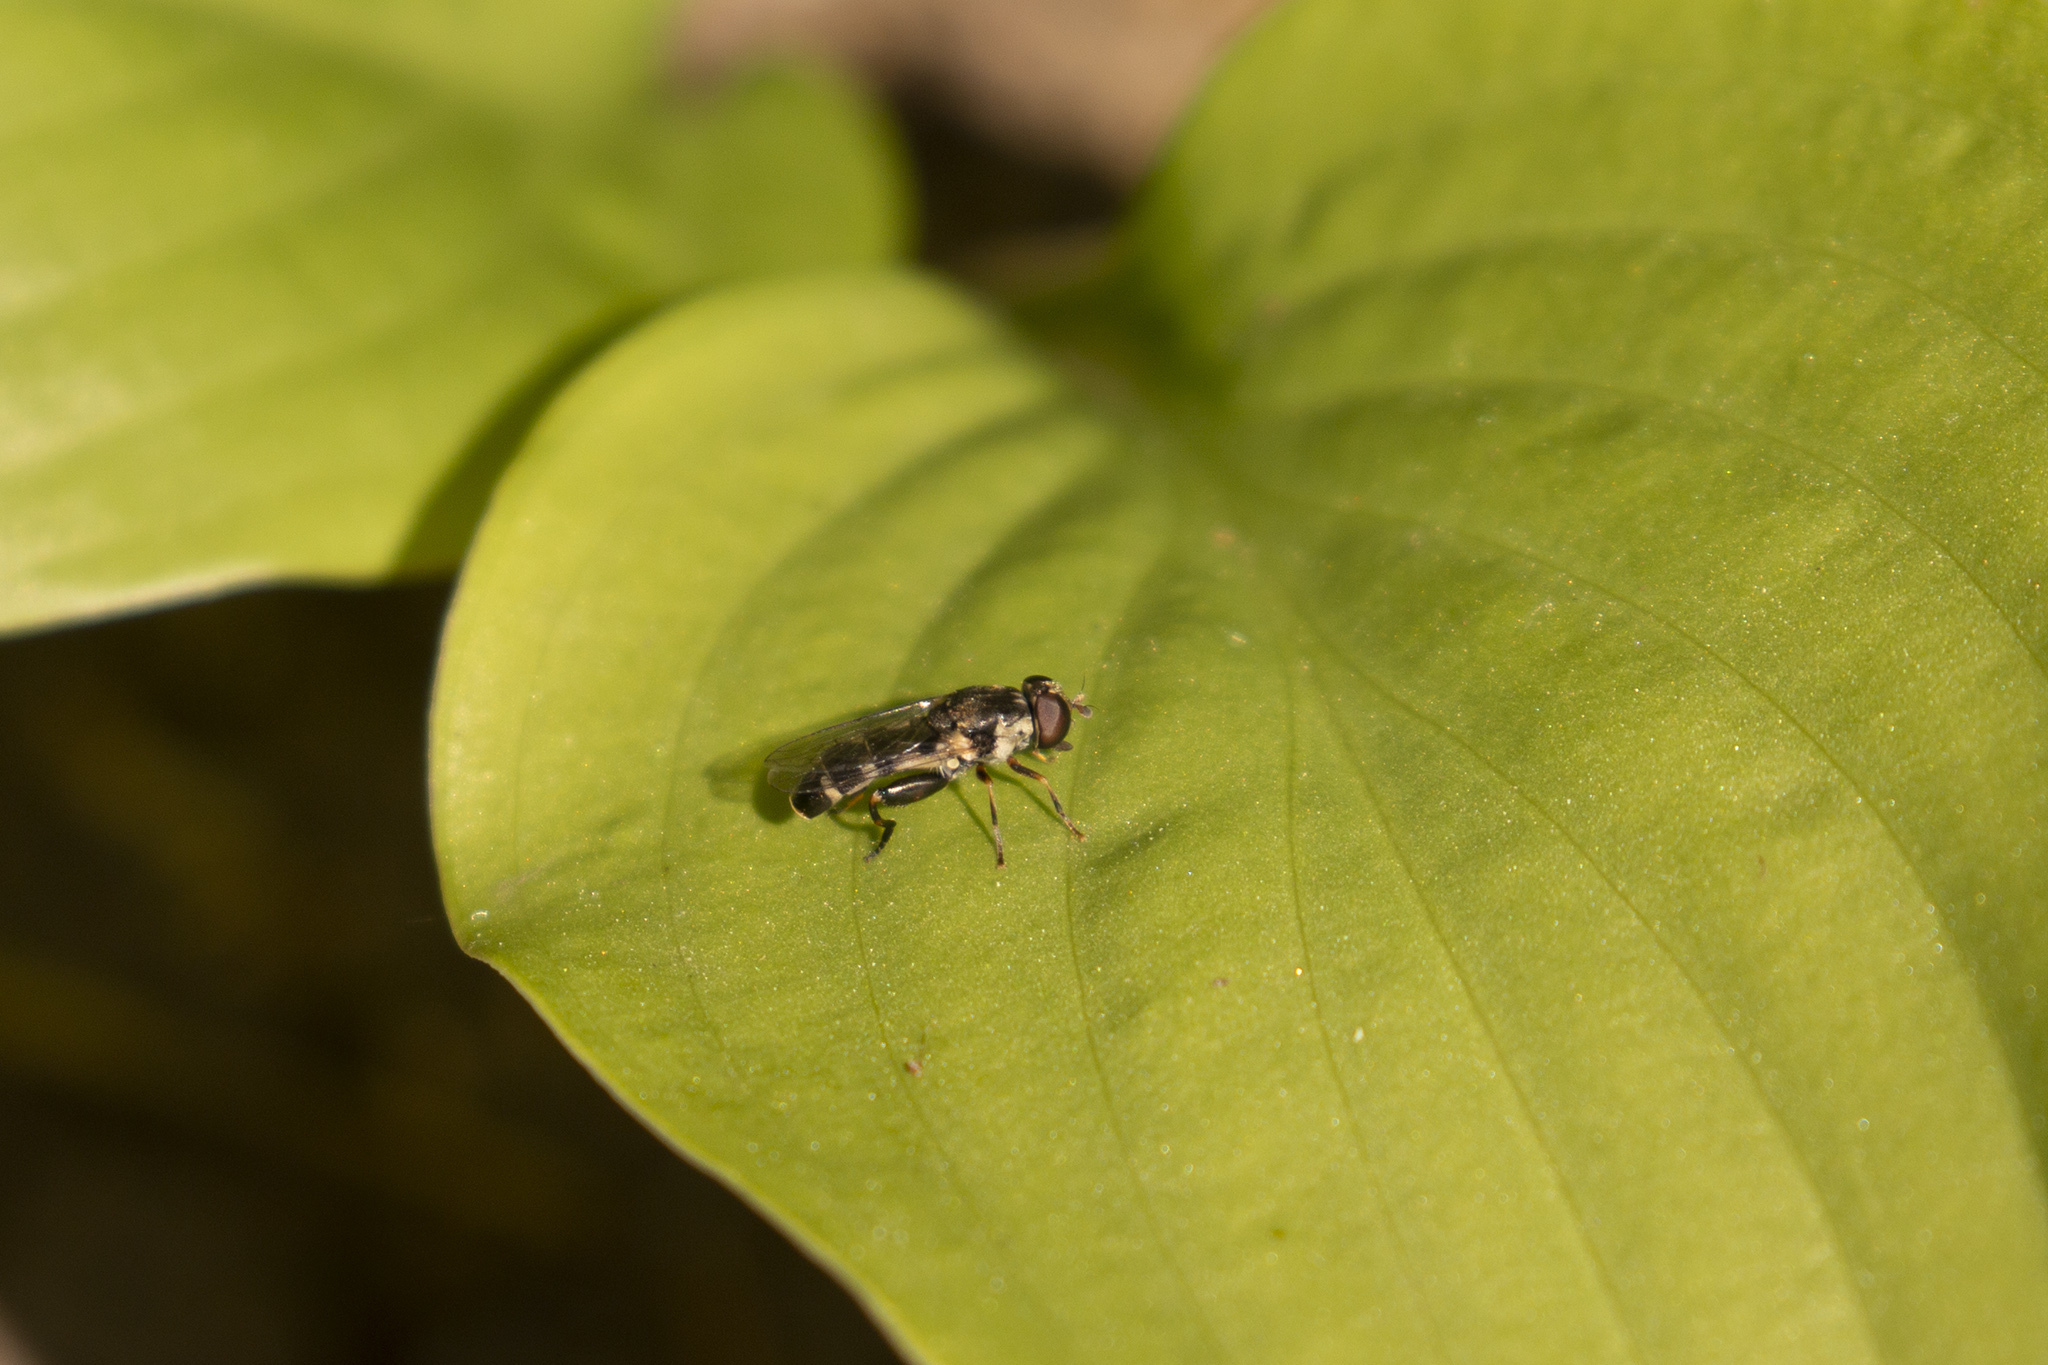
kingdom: Animalia
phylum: Arthropoda
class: Insecta
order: Diptera
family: Syrphidae
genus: Syritta
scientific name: Syritta pipiens
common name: Hover fly
